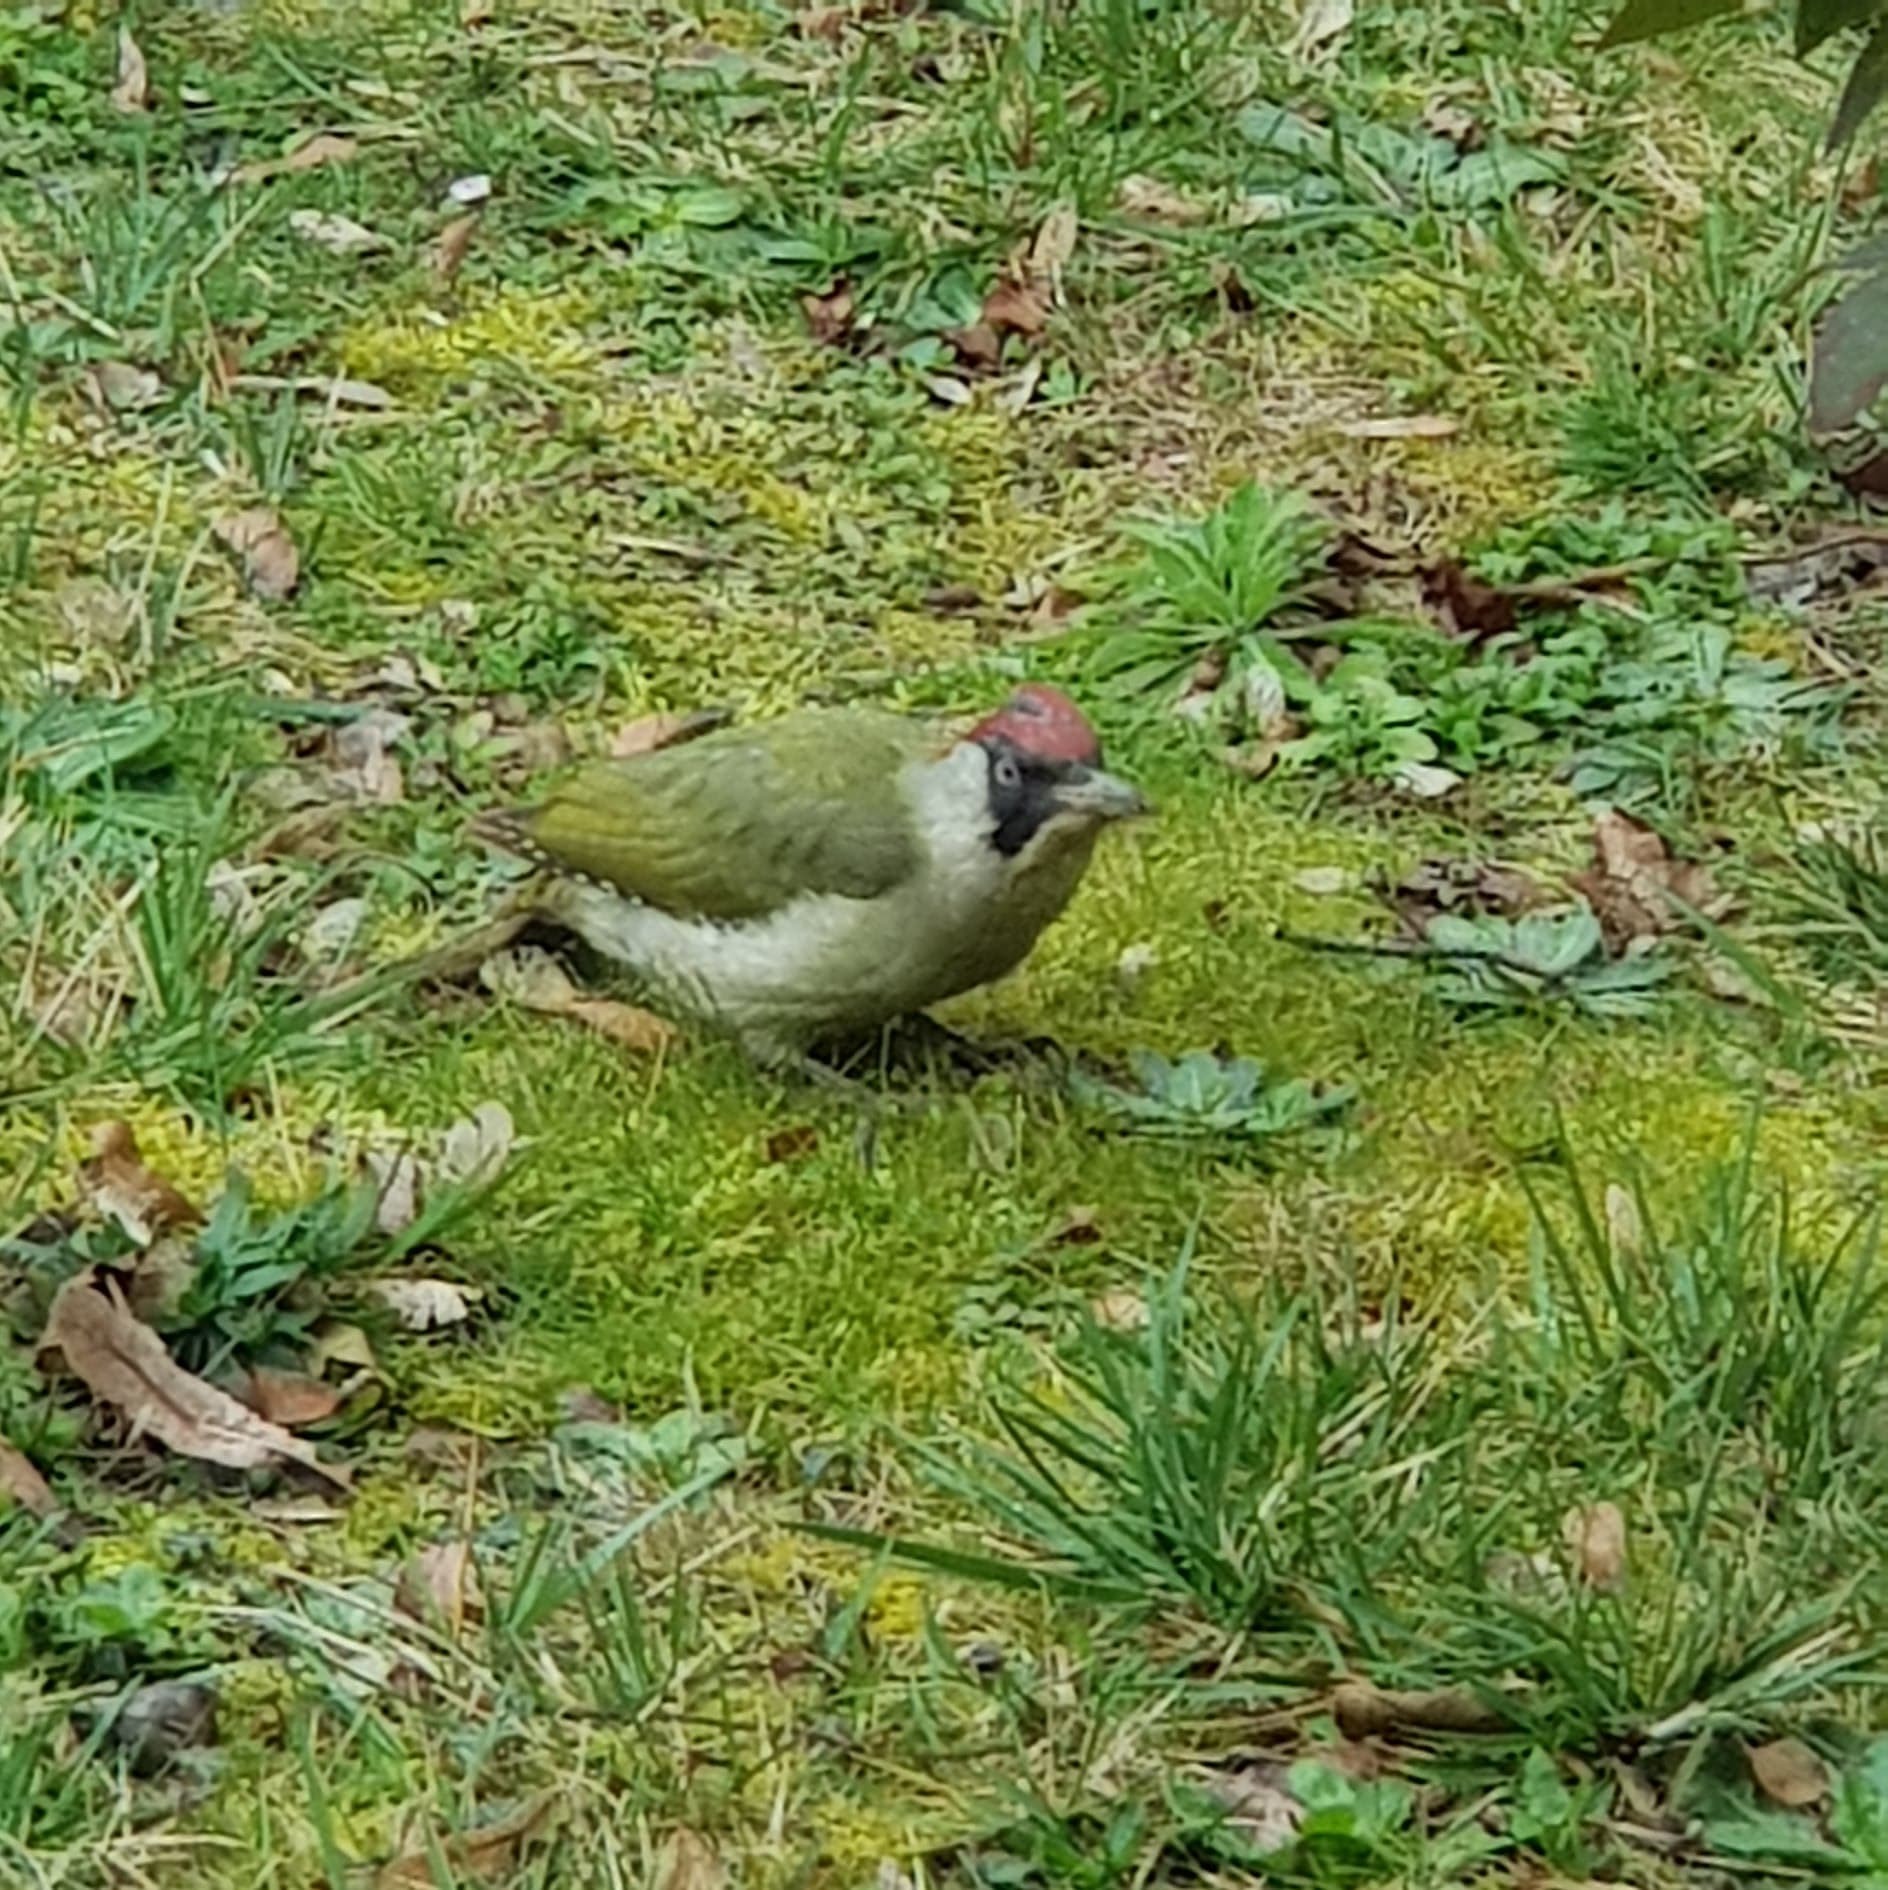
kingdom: Animalia
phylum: Chordata
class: Aves
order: Piciformes
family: Picidae
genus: Picus
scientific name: Picus viridis
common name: European green woodpecker
